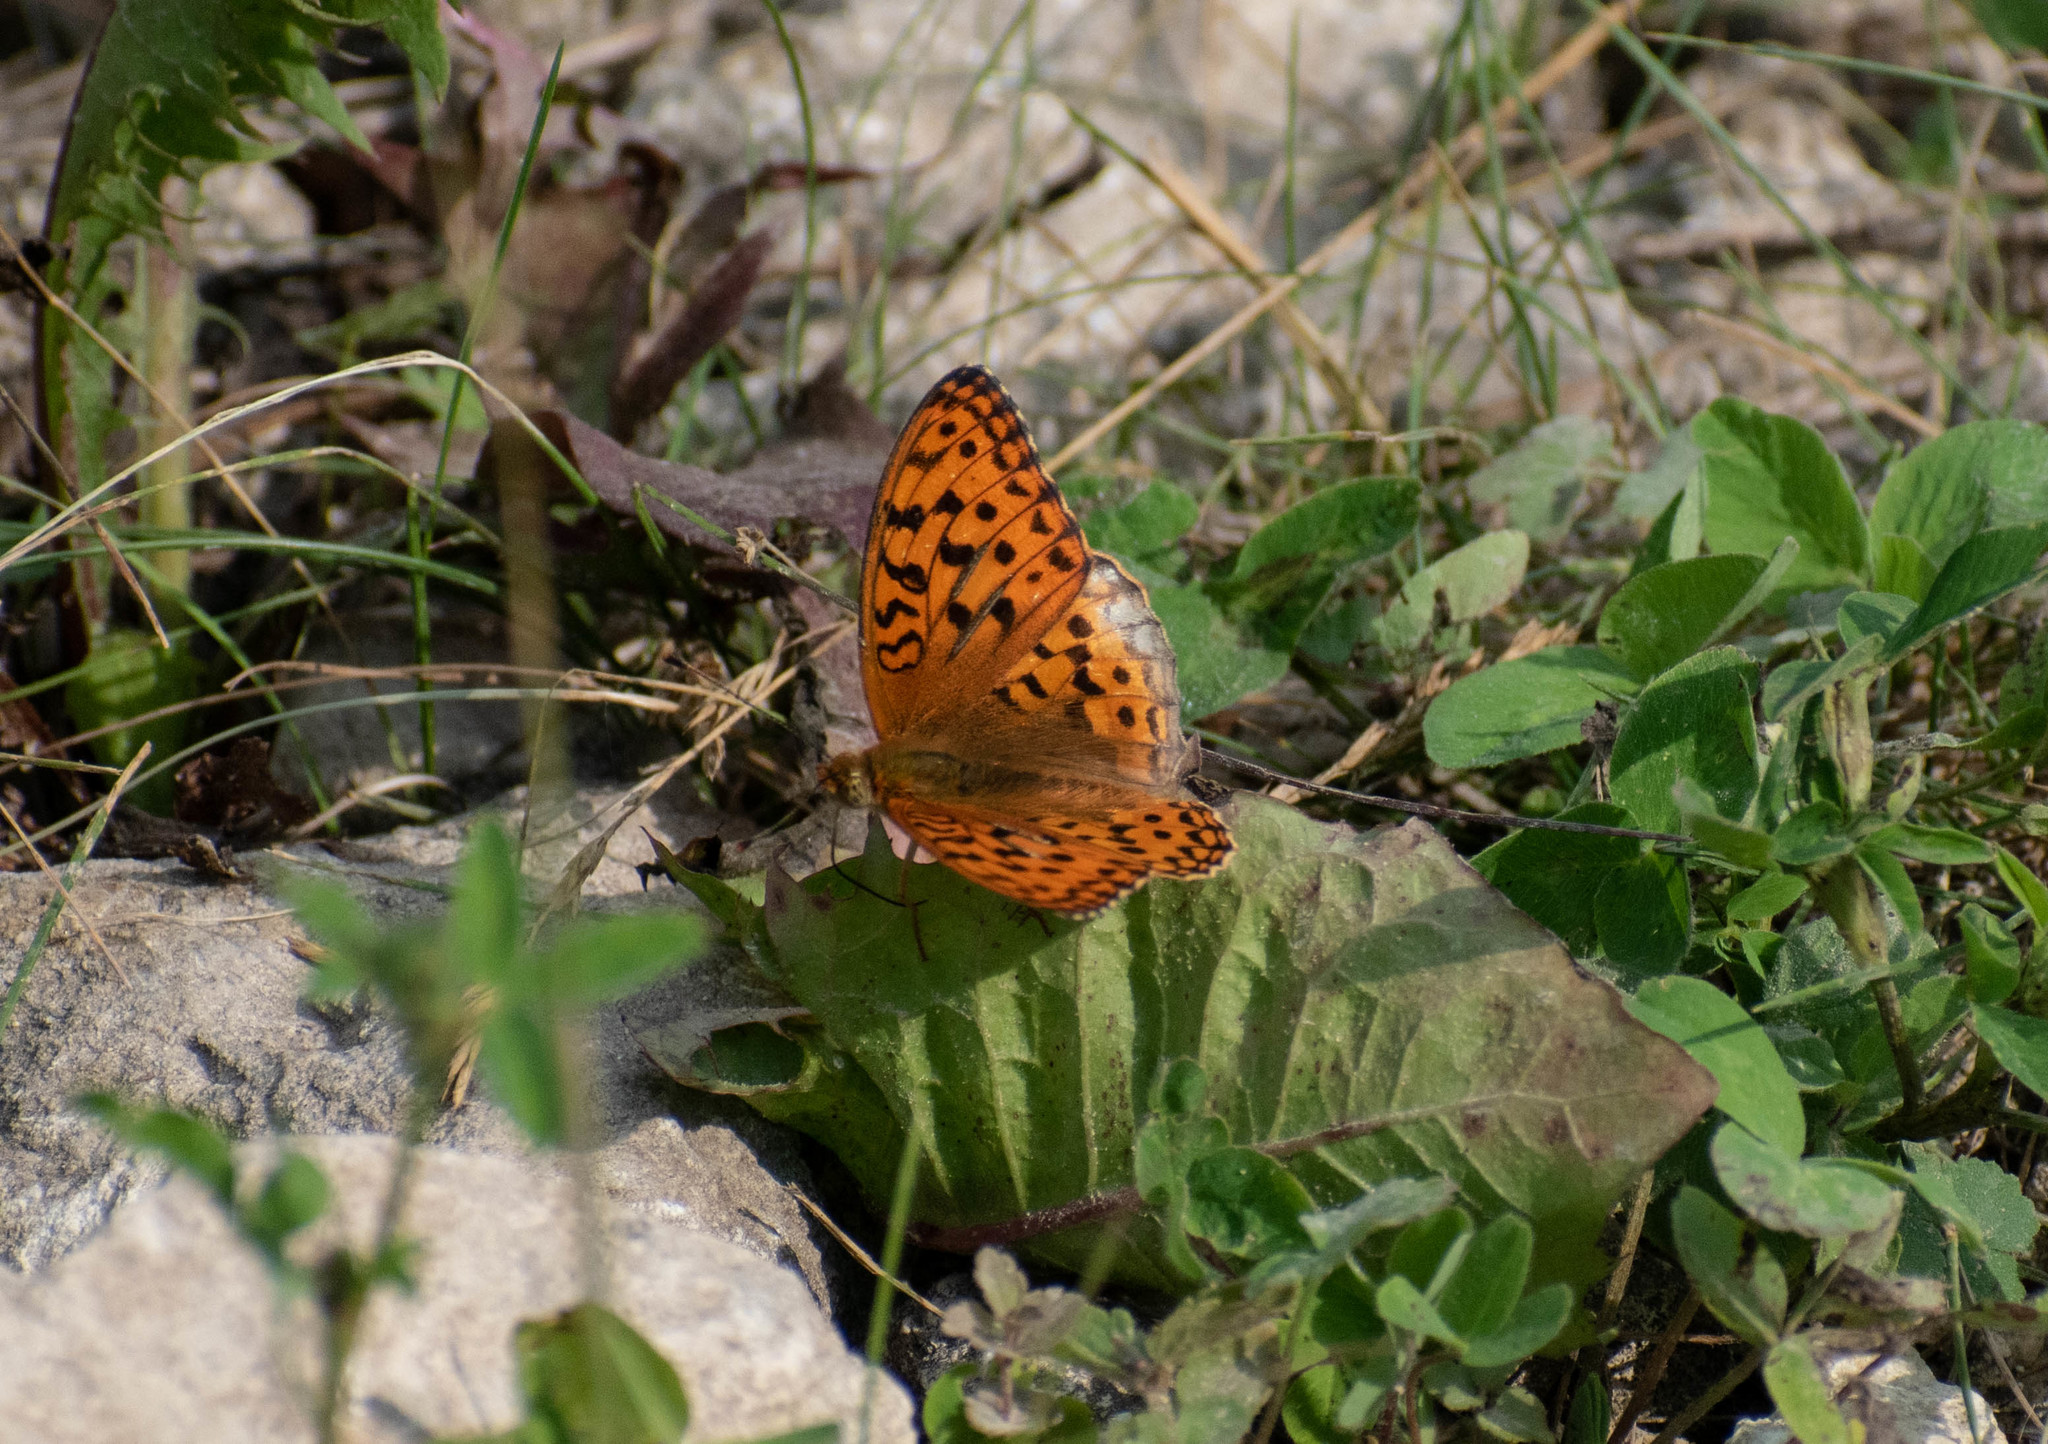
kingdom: Animalia
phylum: Arthropoda
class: Insecta
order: Lepidoptera
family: Nymphalidae
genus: Fabriciana
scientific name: Fabriciana adippe
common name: High brown fritillary
